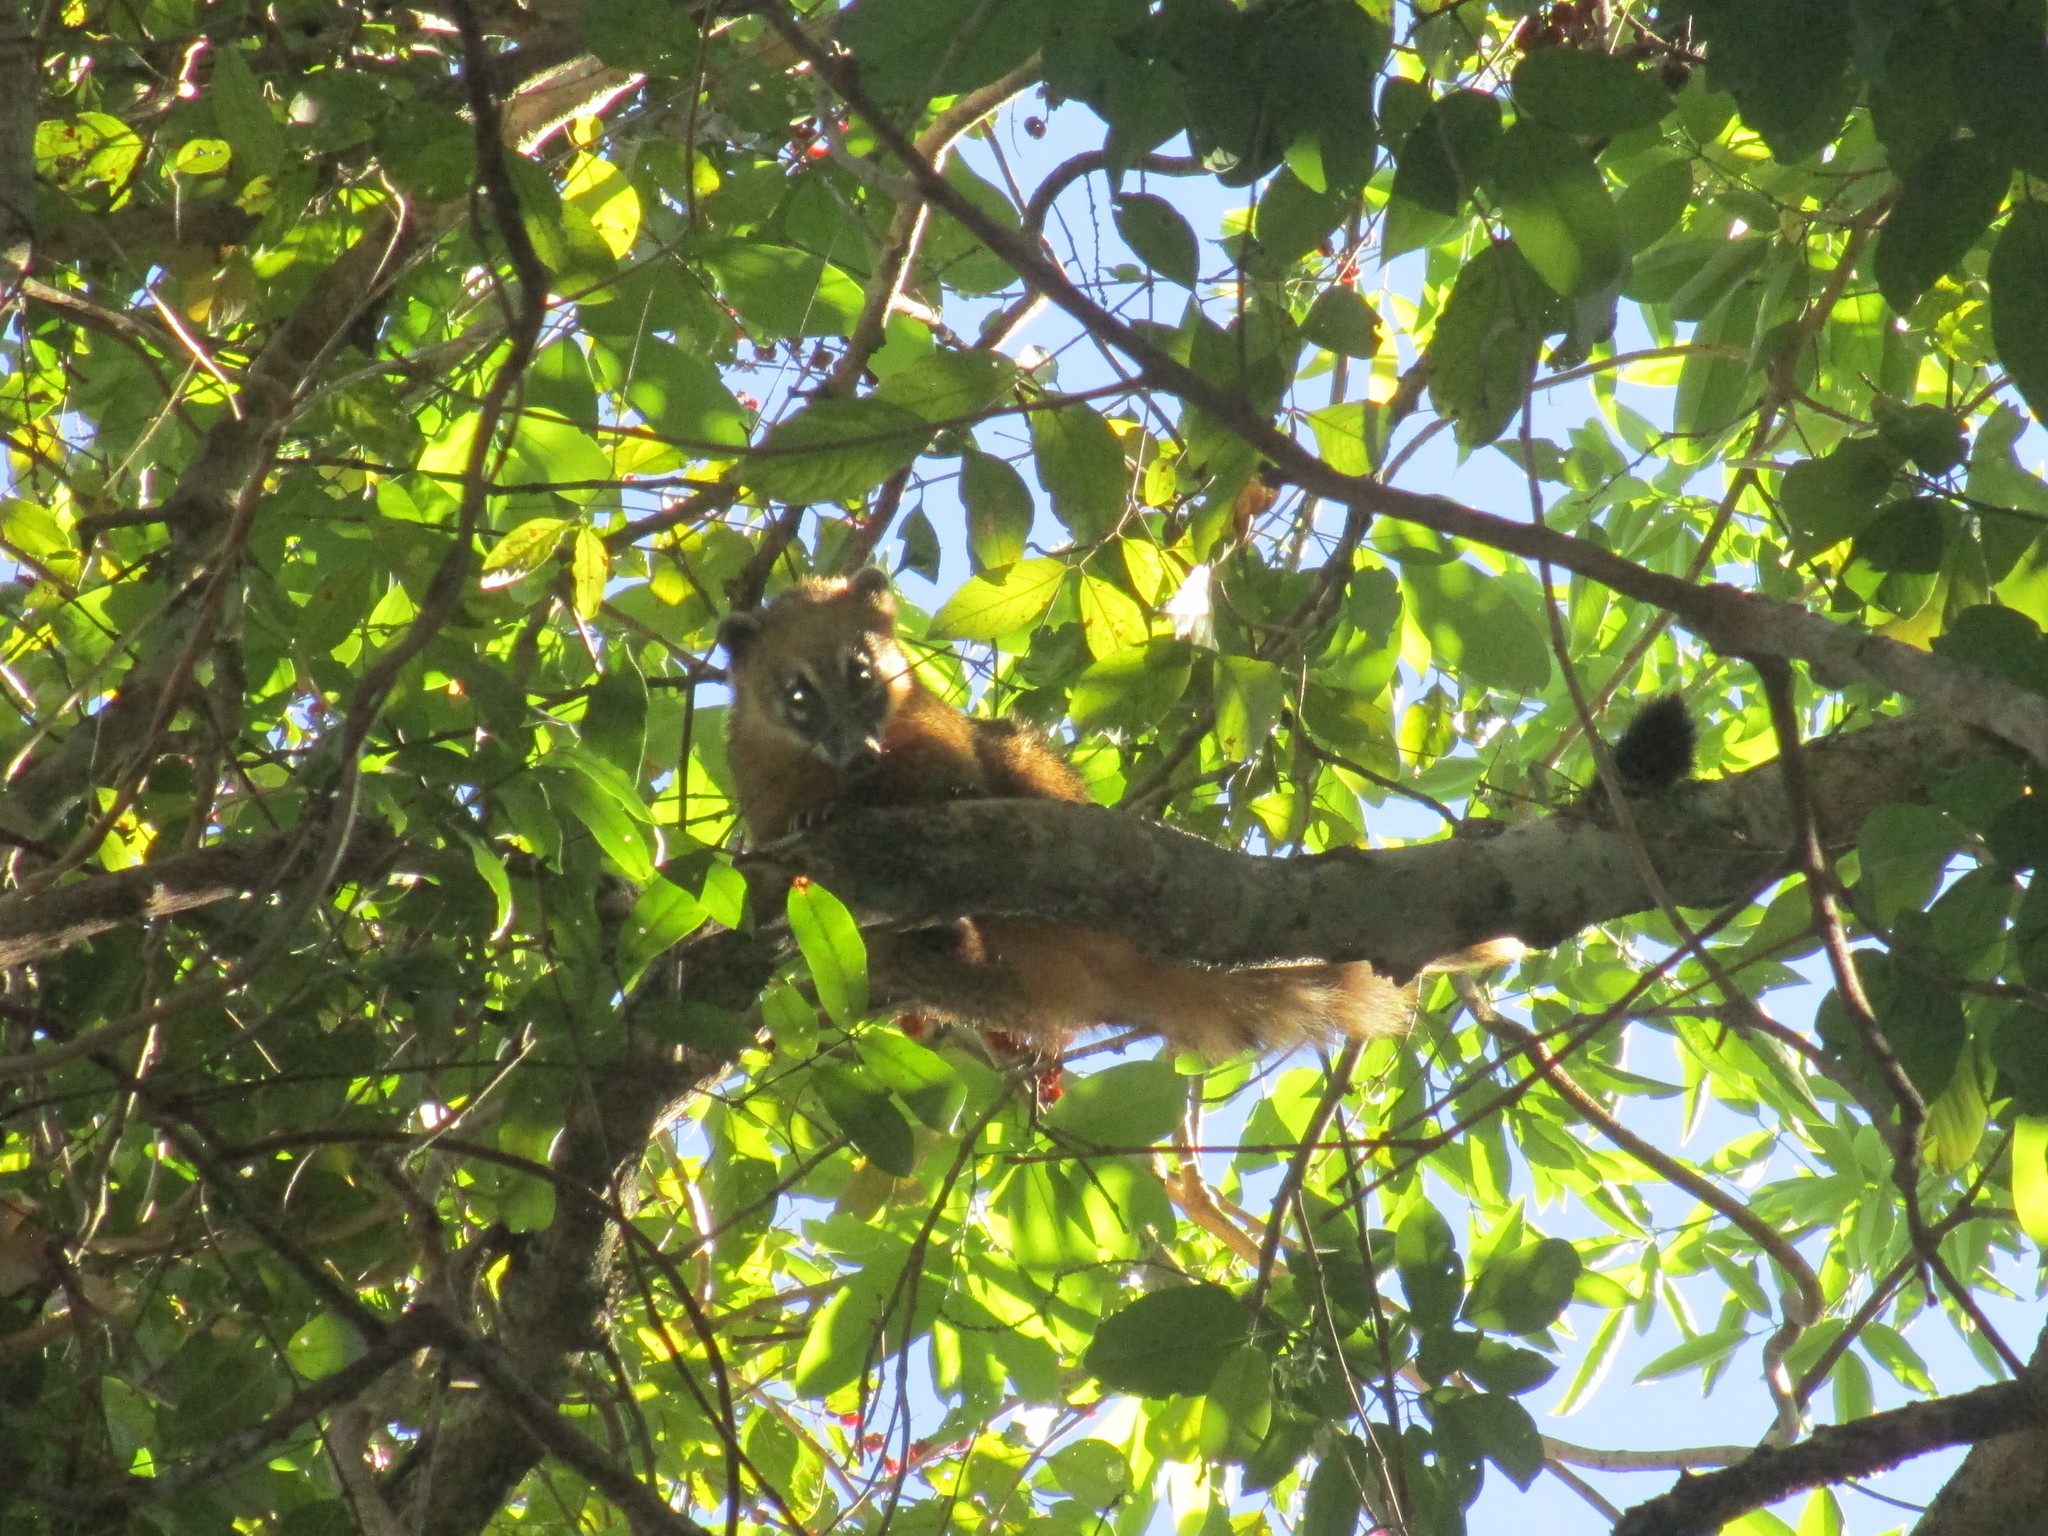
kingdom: Animalia
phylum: Chordata
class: Mammalia
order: Carnivora
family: Procyonidae
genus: Nasua
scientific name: Nasua nasua
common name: South american coati
